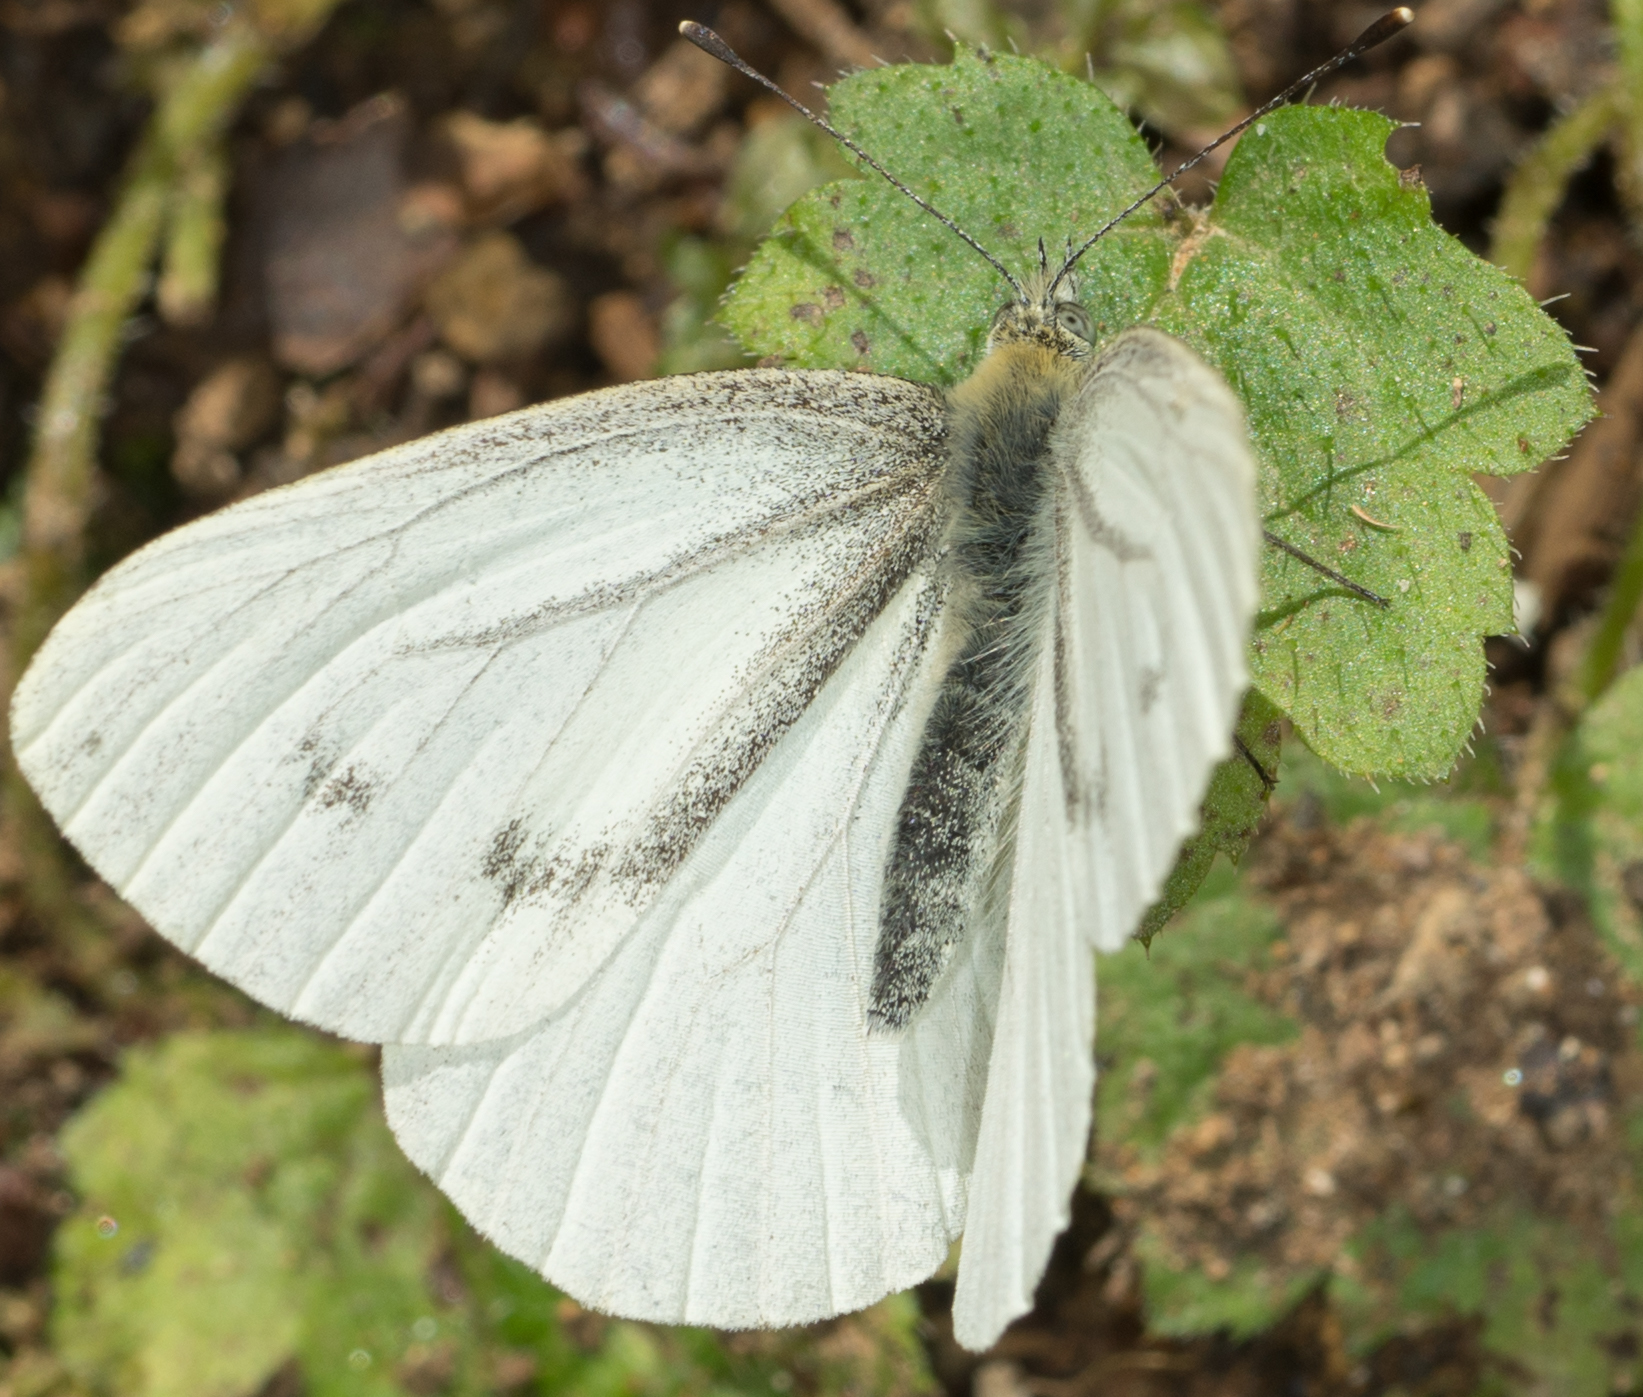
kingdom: Animalia
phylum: Arthropoda
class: Insecta
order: Lepidoptera
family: Pieridae
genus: Pieris
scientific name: Pieris marginalis
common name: Margined white
